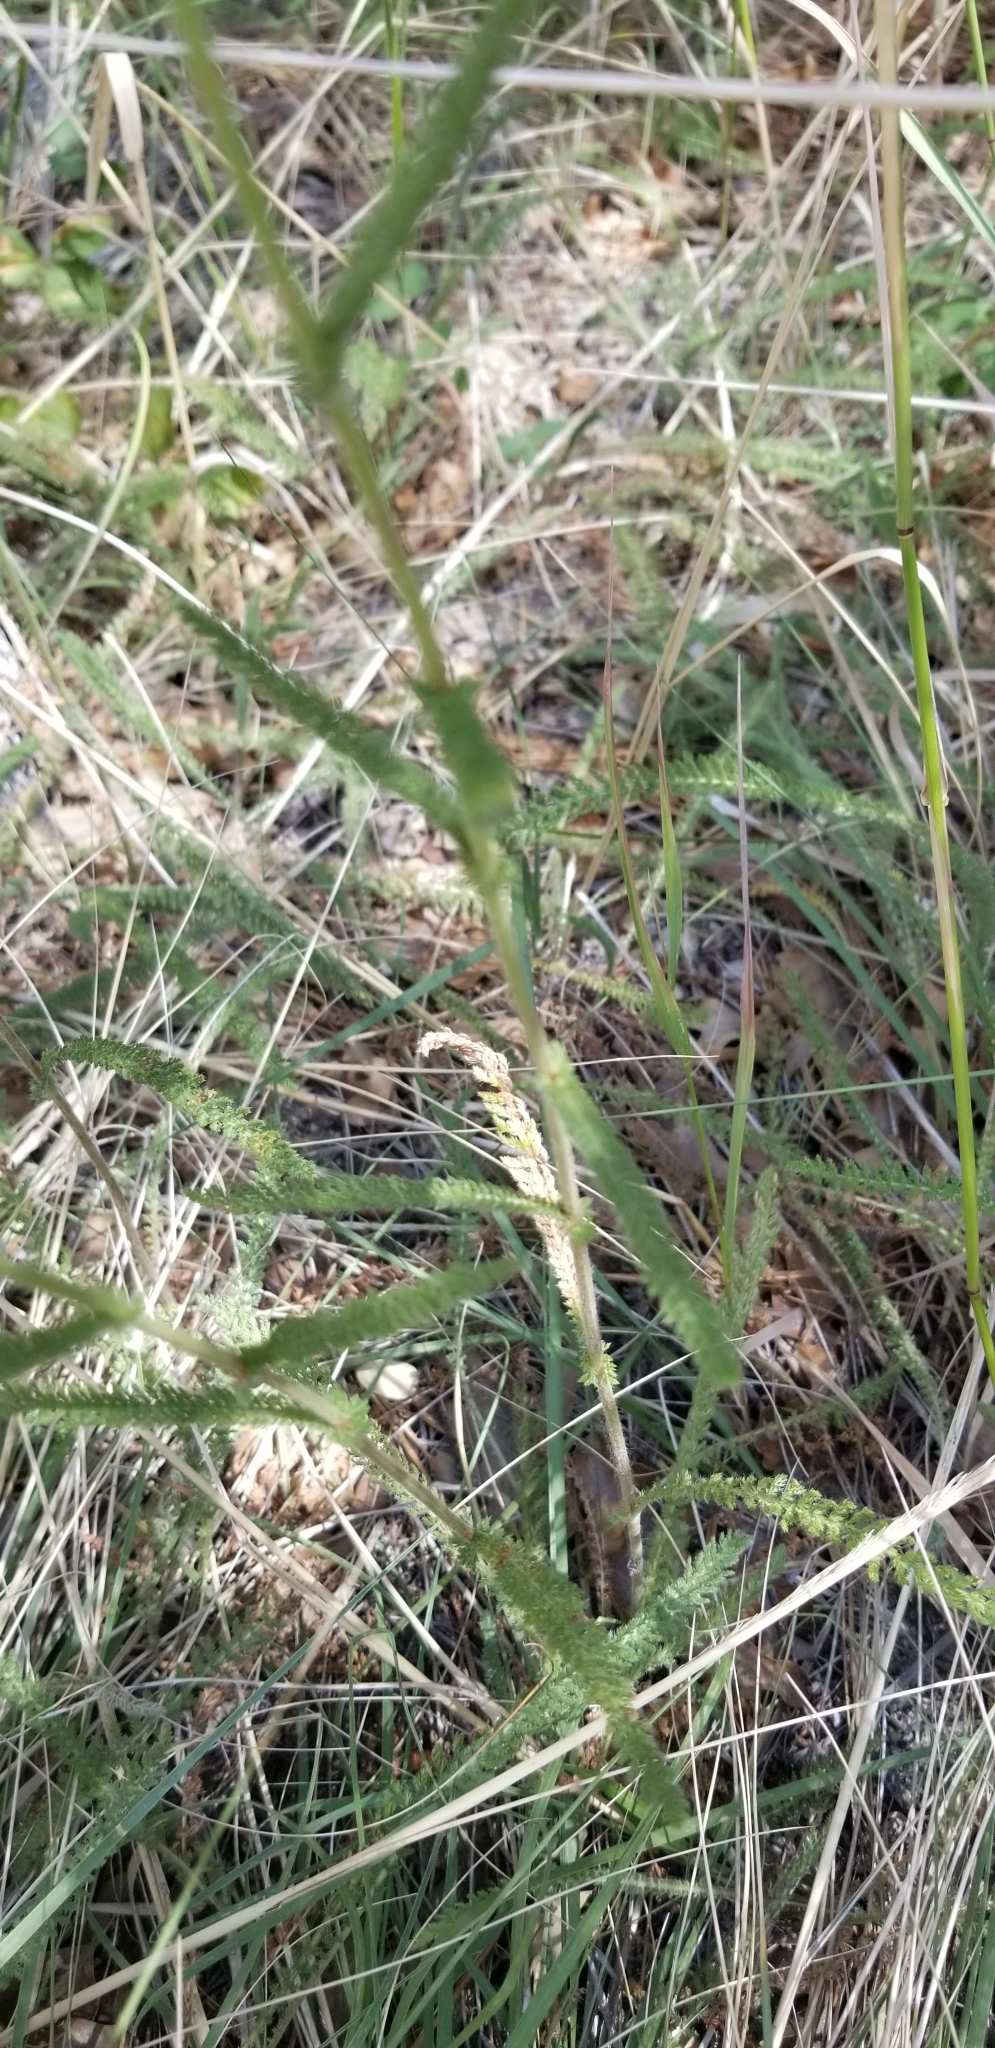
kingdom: Plantae
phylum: Tracheophyta
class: Magnoliopsida
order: Asterales
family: Asteraceae
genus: Achillea
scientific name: Achillea millefolium
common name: Yarrow
